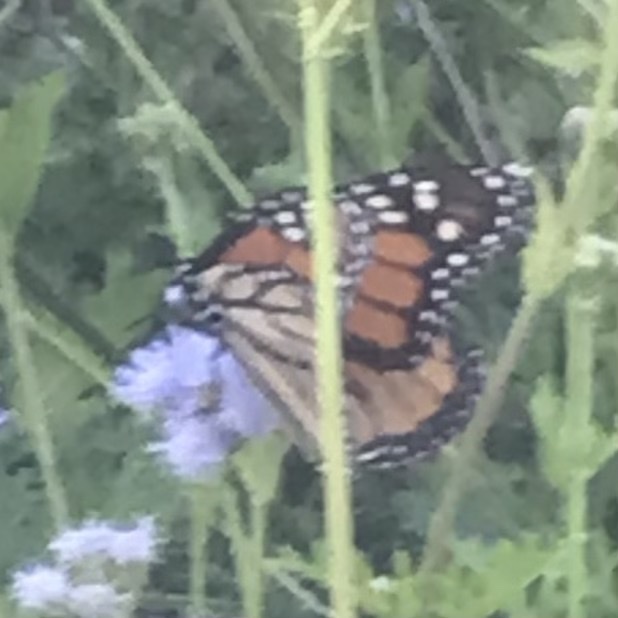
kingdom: Animalia
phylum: Arthropoda
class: Insecta
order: Lepidoptera
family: Nymphalidae
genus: Danaus
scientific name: Danaus plexippus
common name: Monarch
